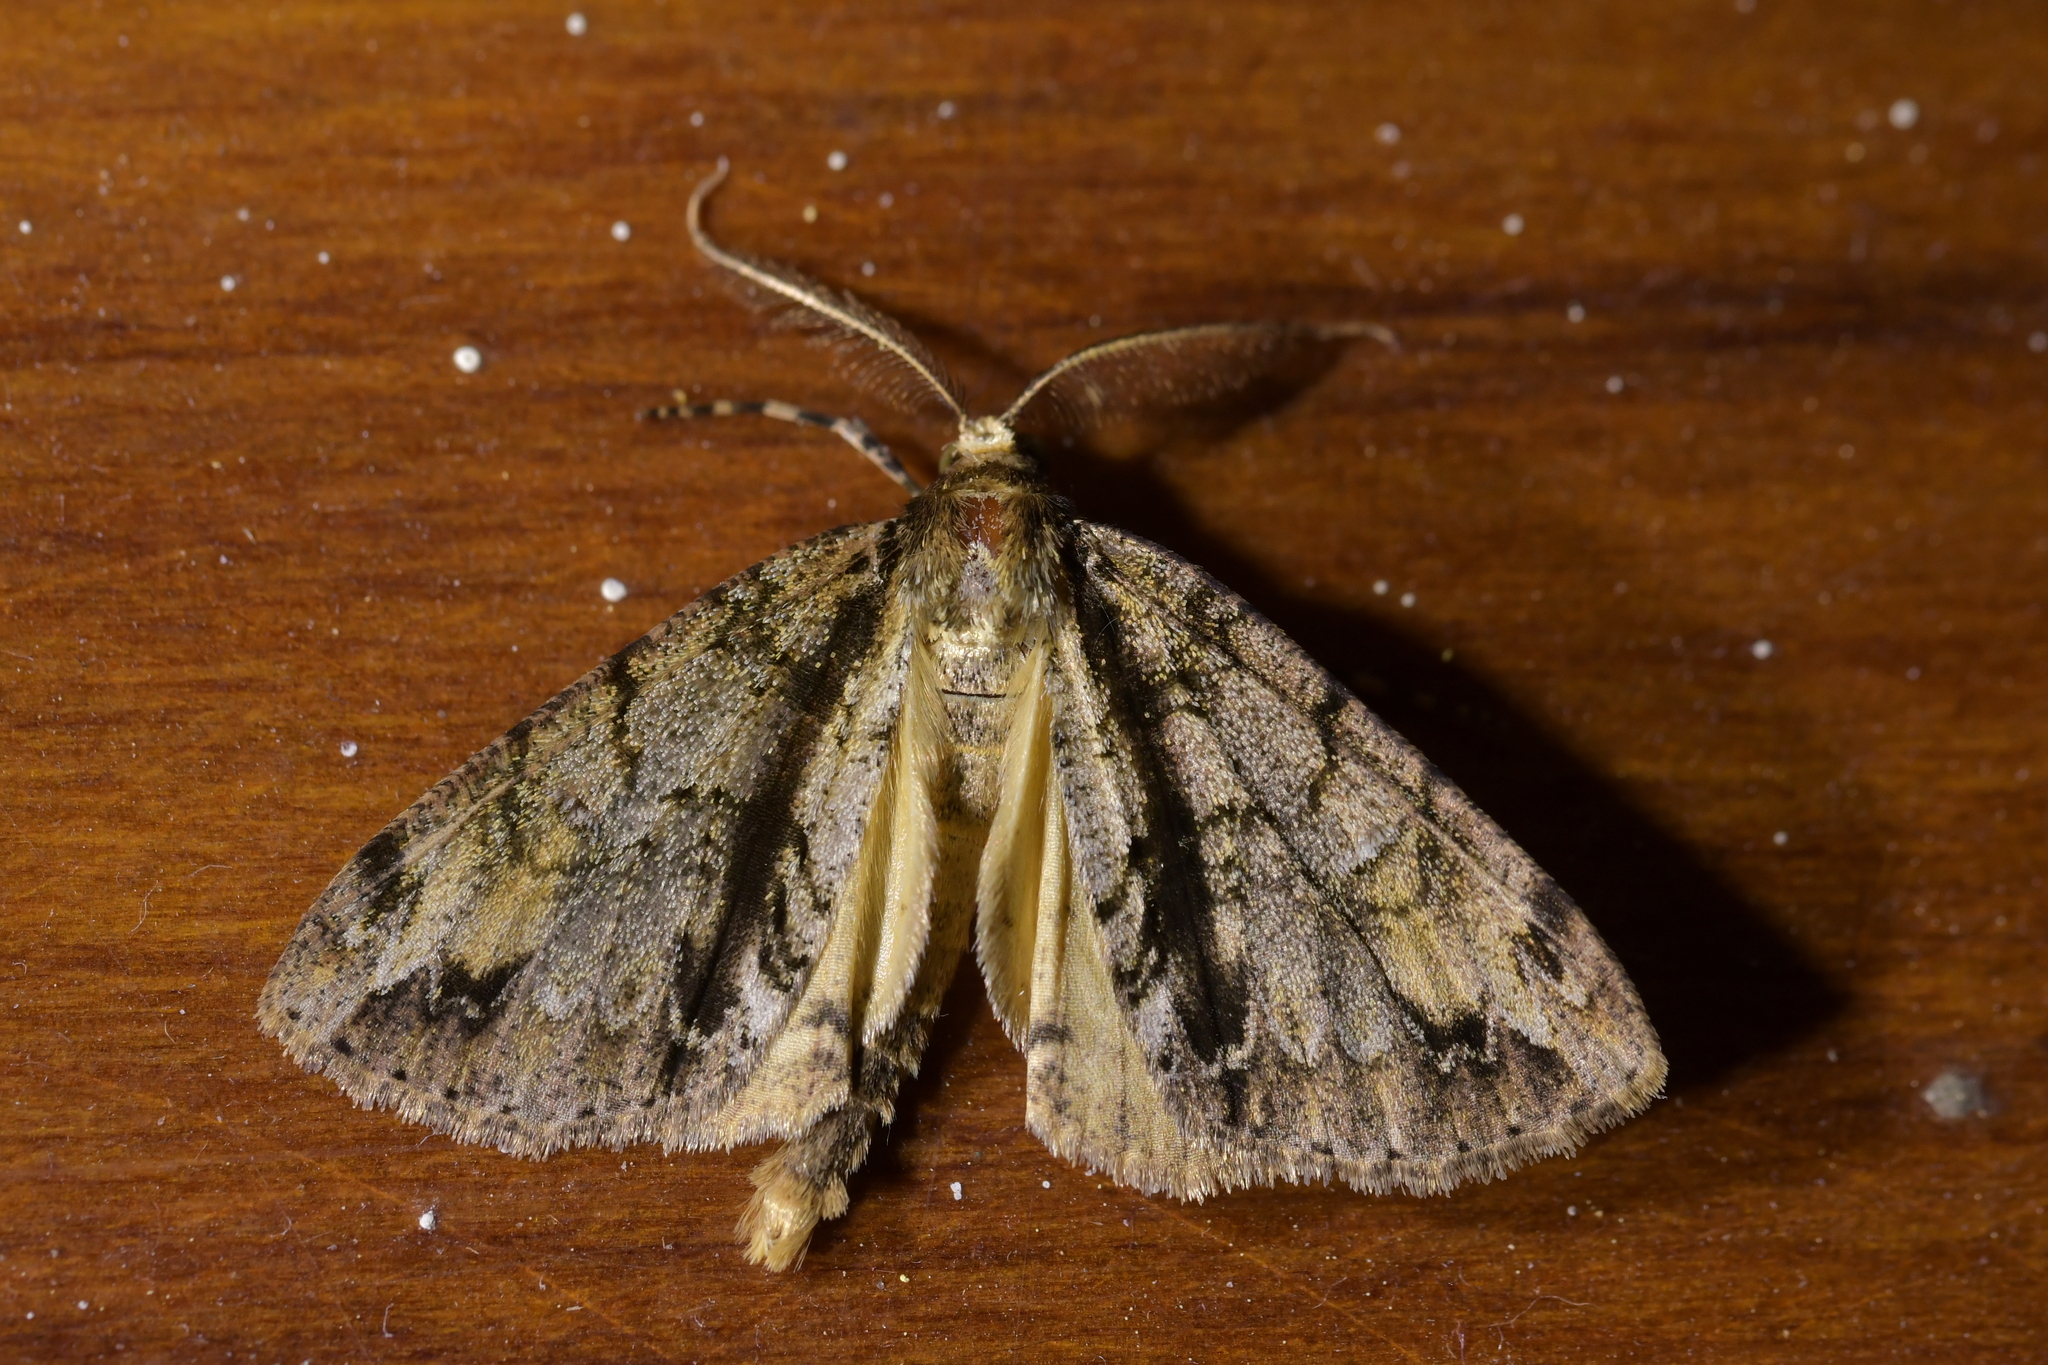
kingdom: Animalia
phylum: Arthropoda
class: Insecta
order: Lepidoptera
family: Geometridae
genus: Pseudocoremia
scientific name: Pseudocoremia suavis
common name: Common forest looper
